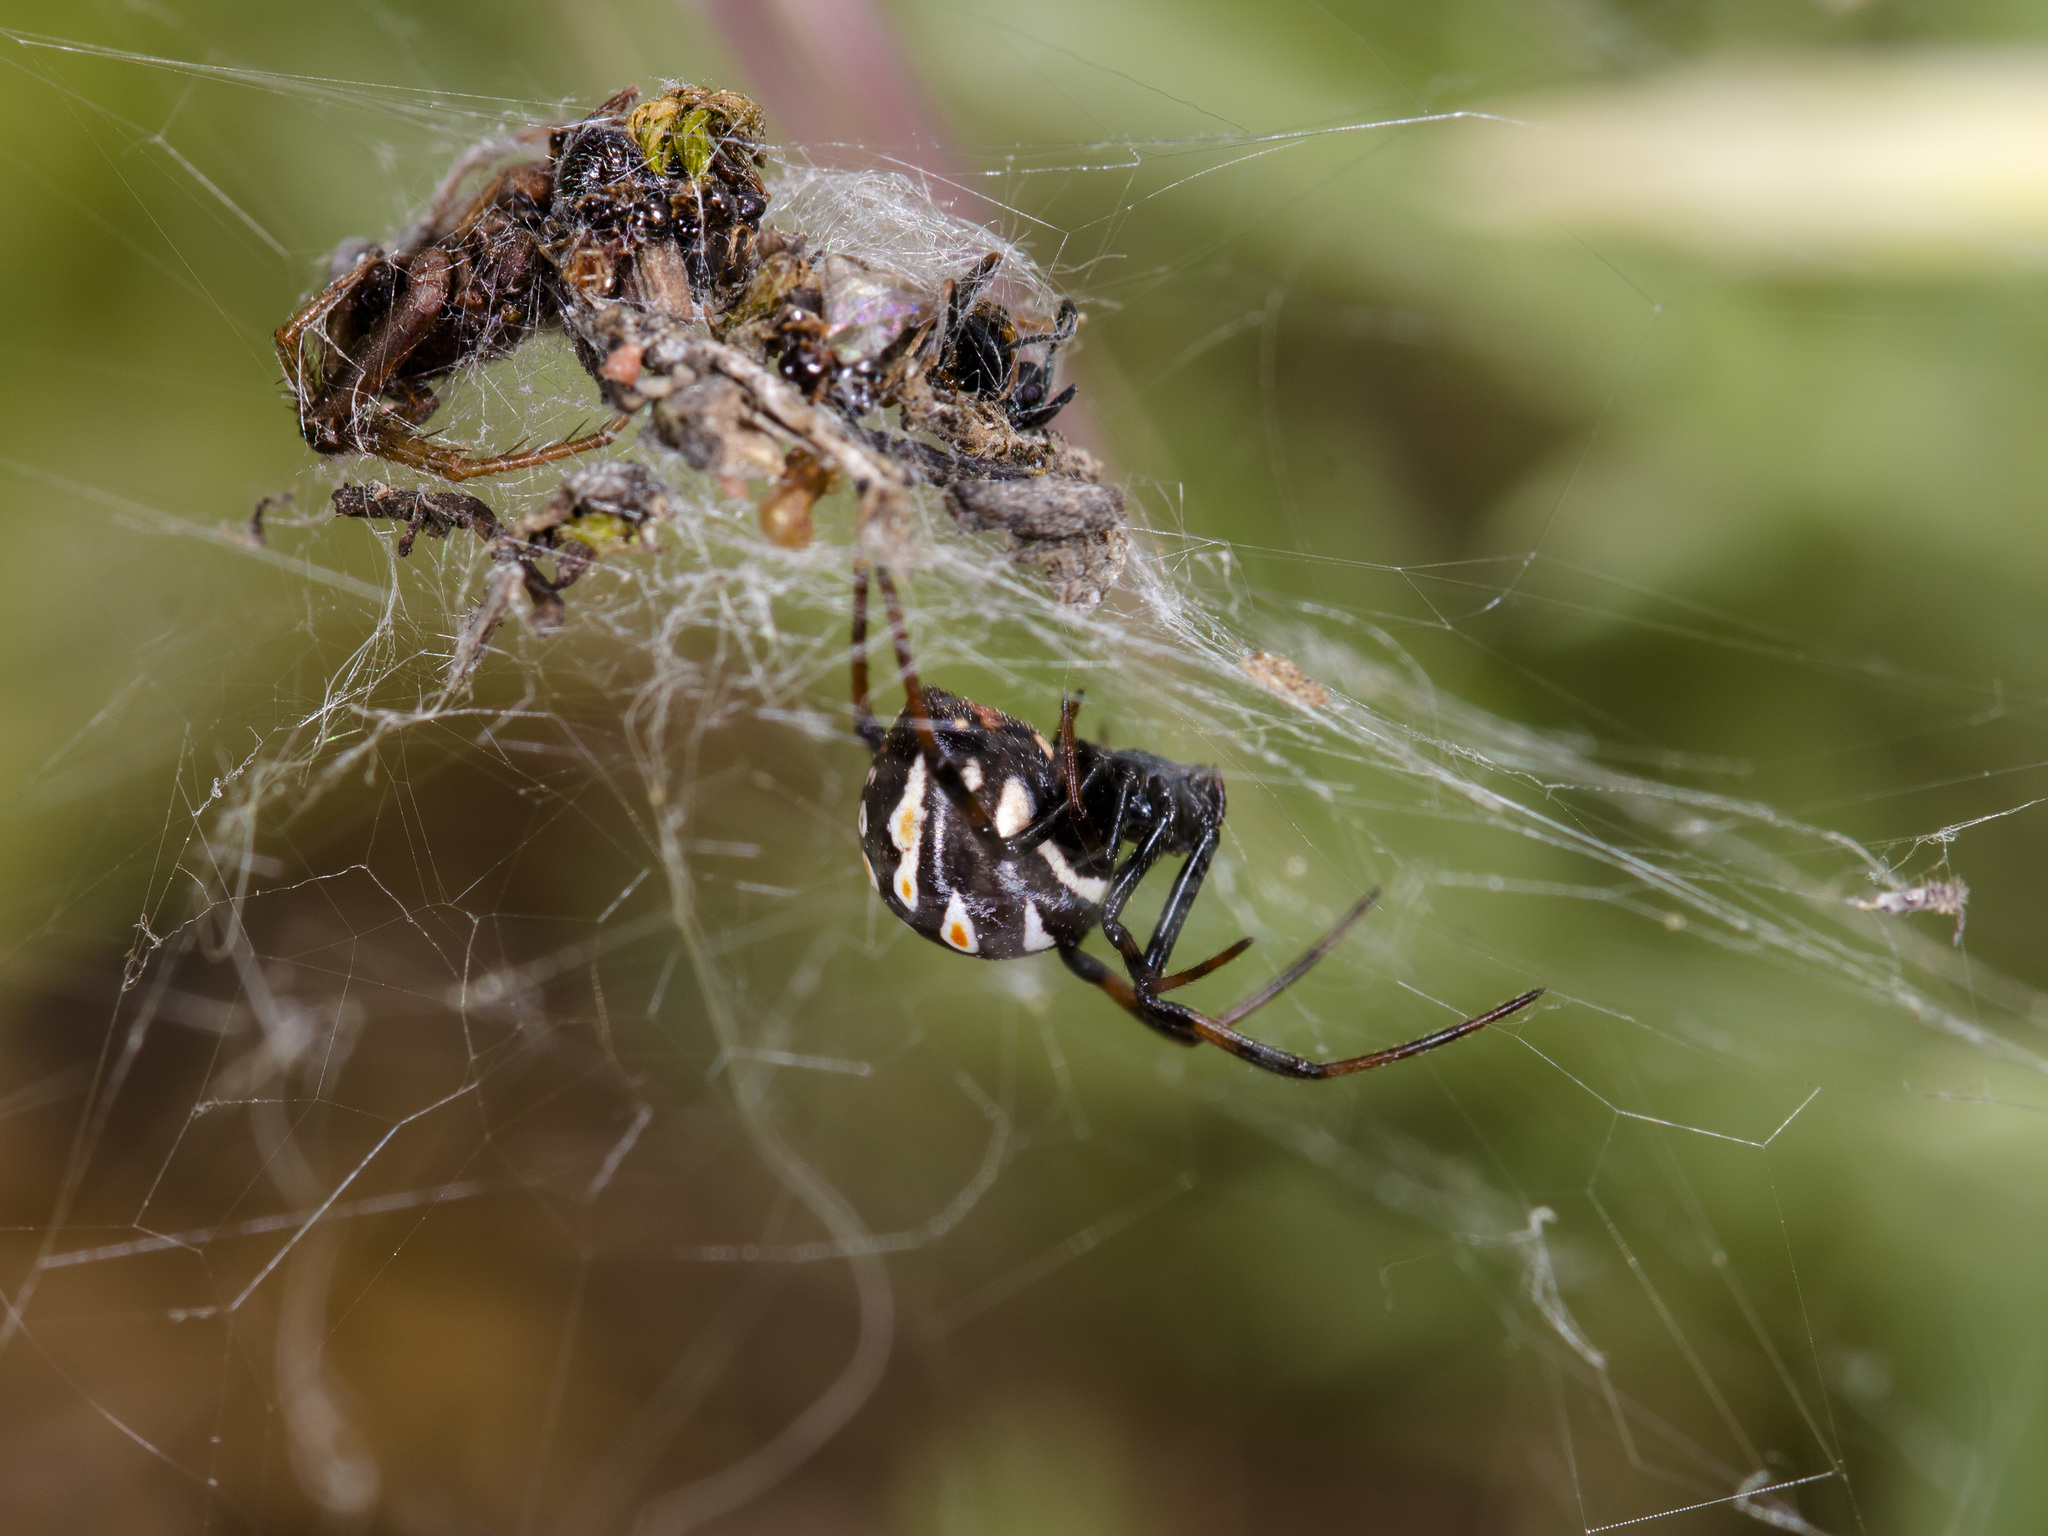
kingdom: Animalia
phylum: Arthropoda
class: Arachnida
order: Araneae
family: Theridiidae
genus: Latrodectus
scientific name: Latrodectus tredecimguttatus
